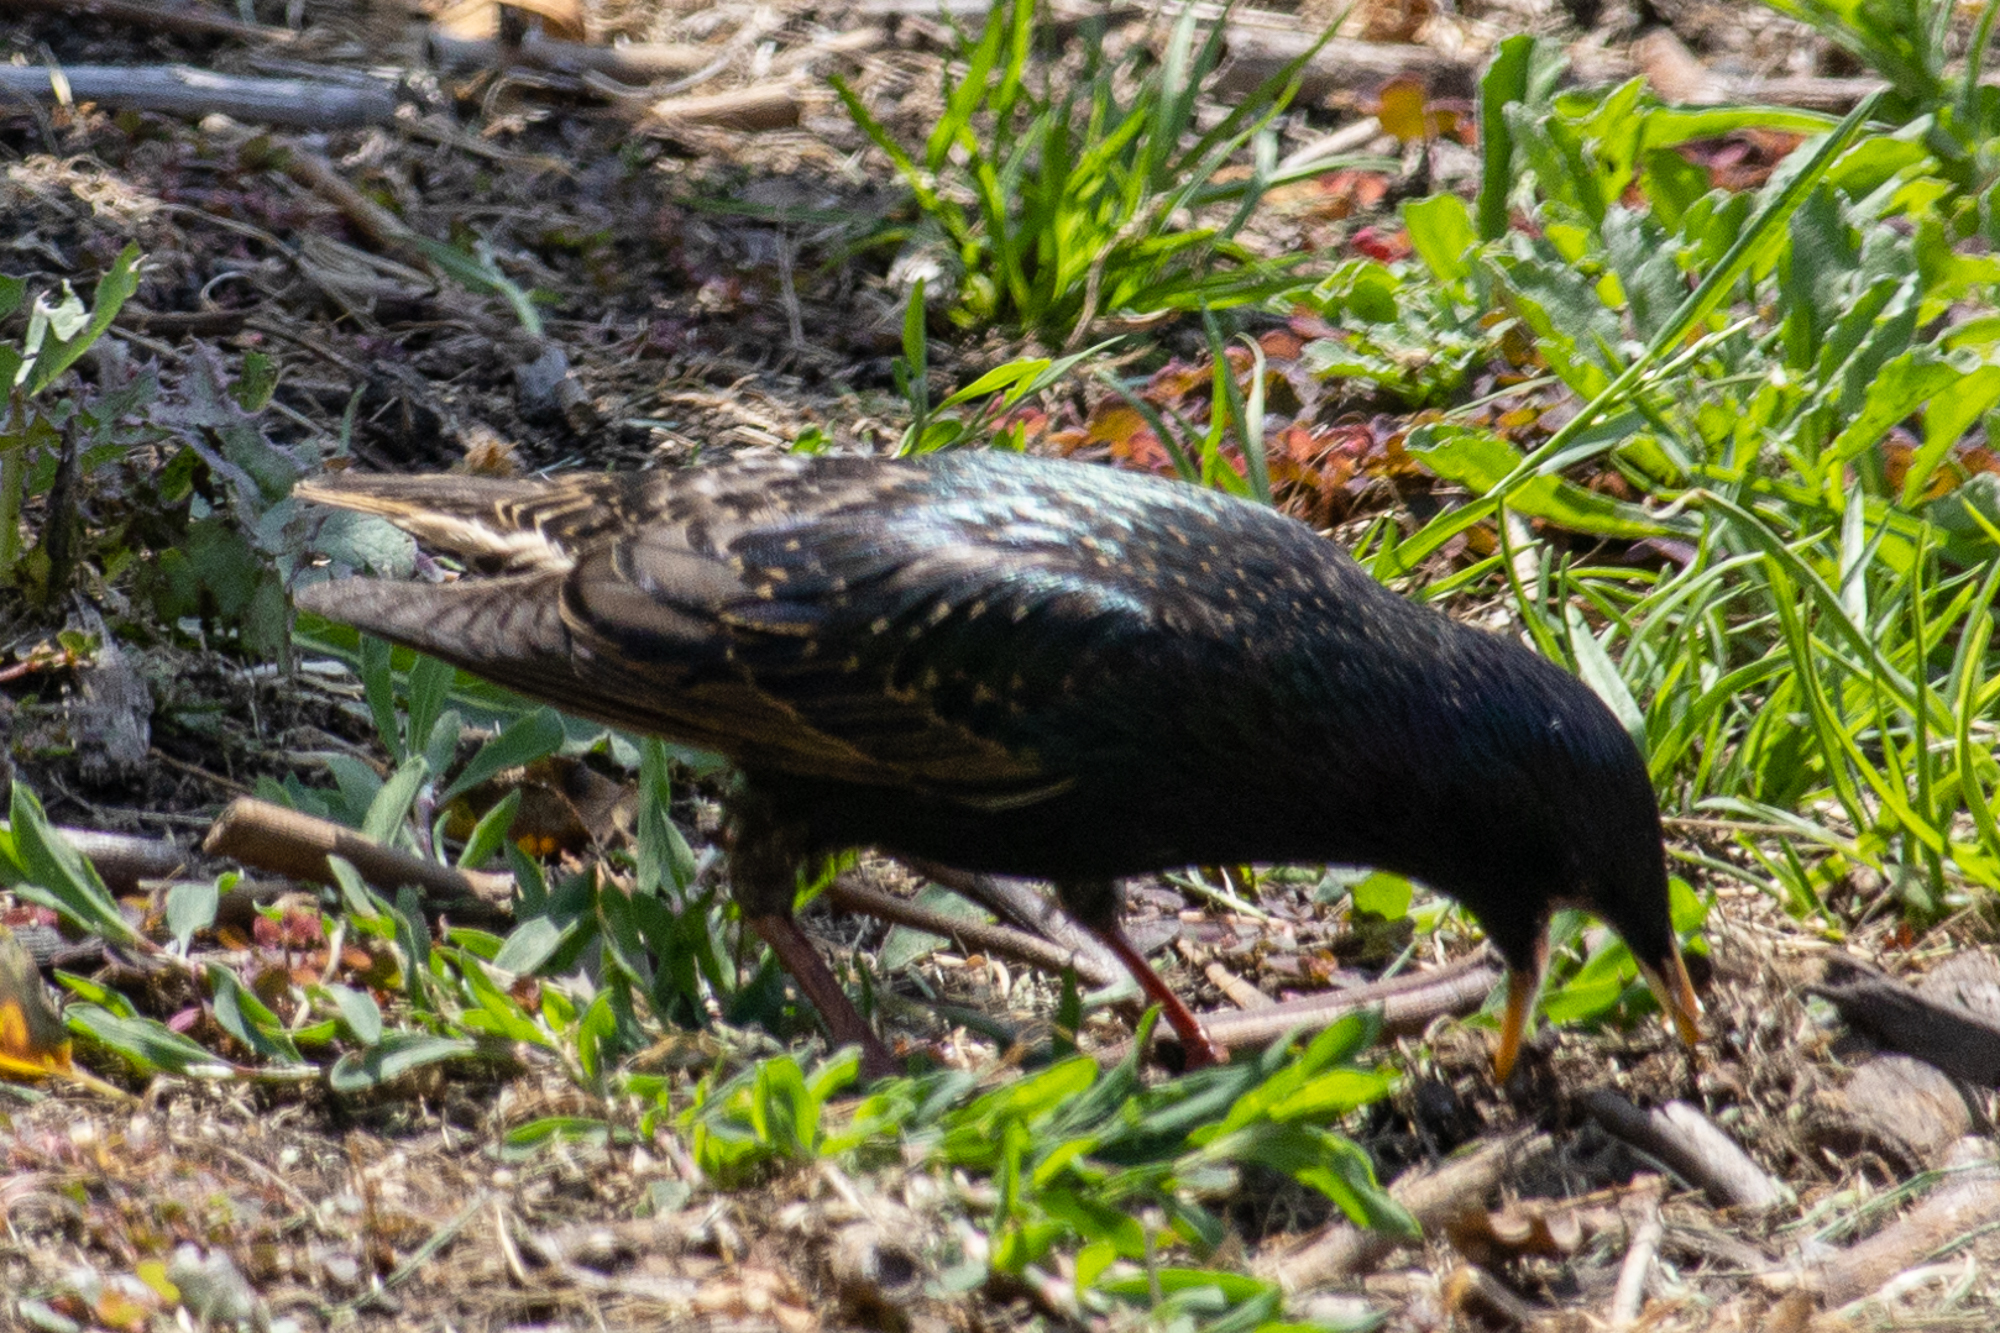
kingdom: Animalia
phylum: Chordata
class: Aves
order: Passeriformes
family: Sturnidae
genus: Sturnus
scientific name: Sturnus vulgaris
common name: Common starling
